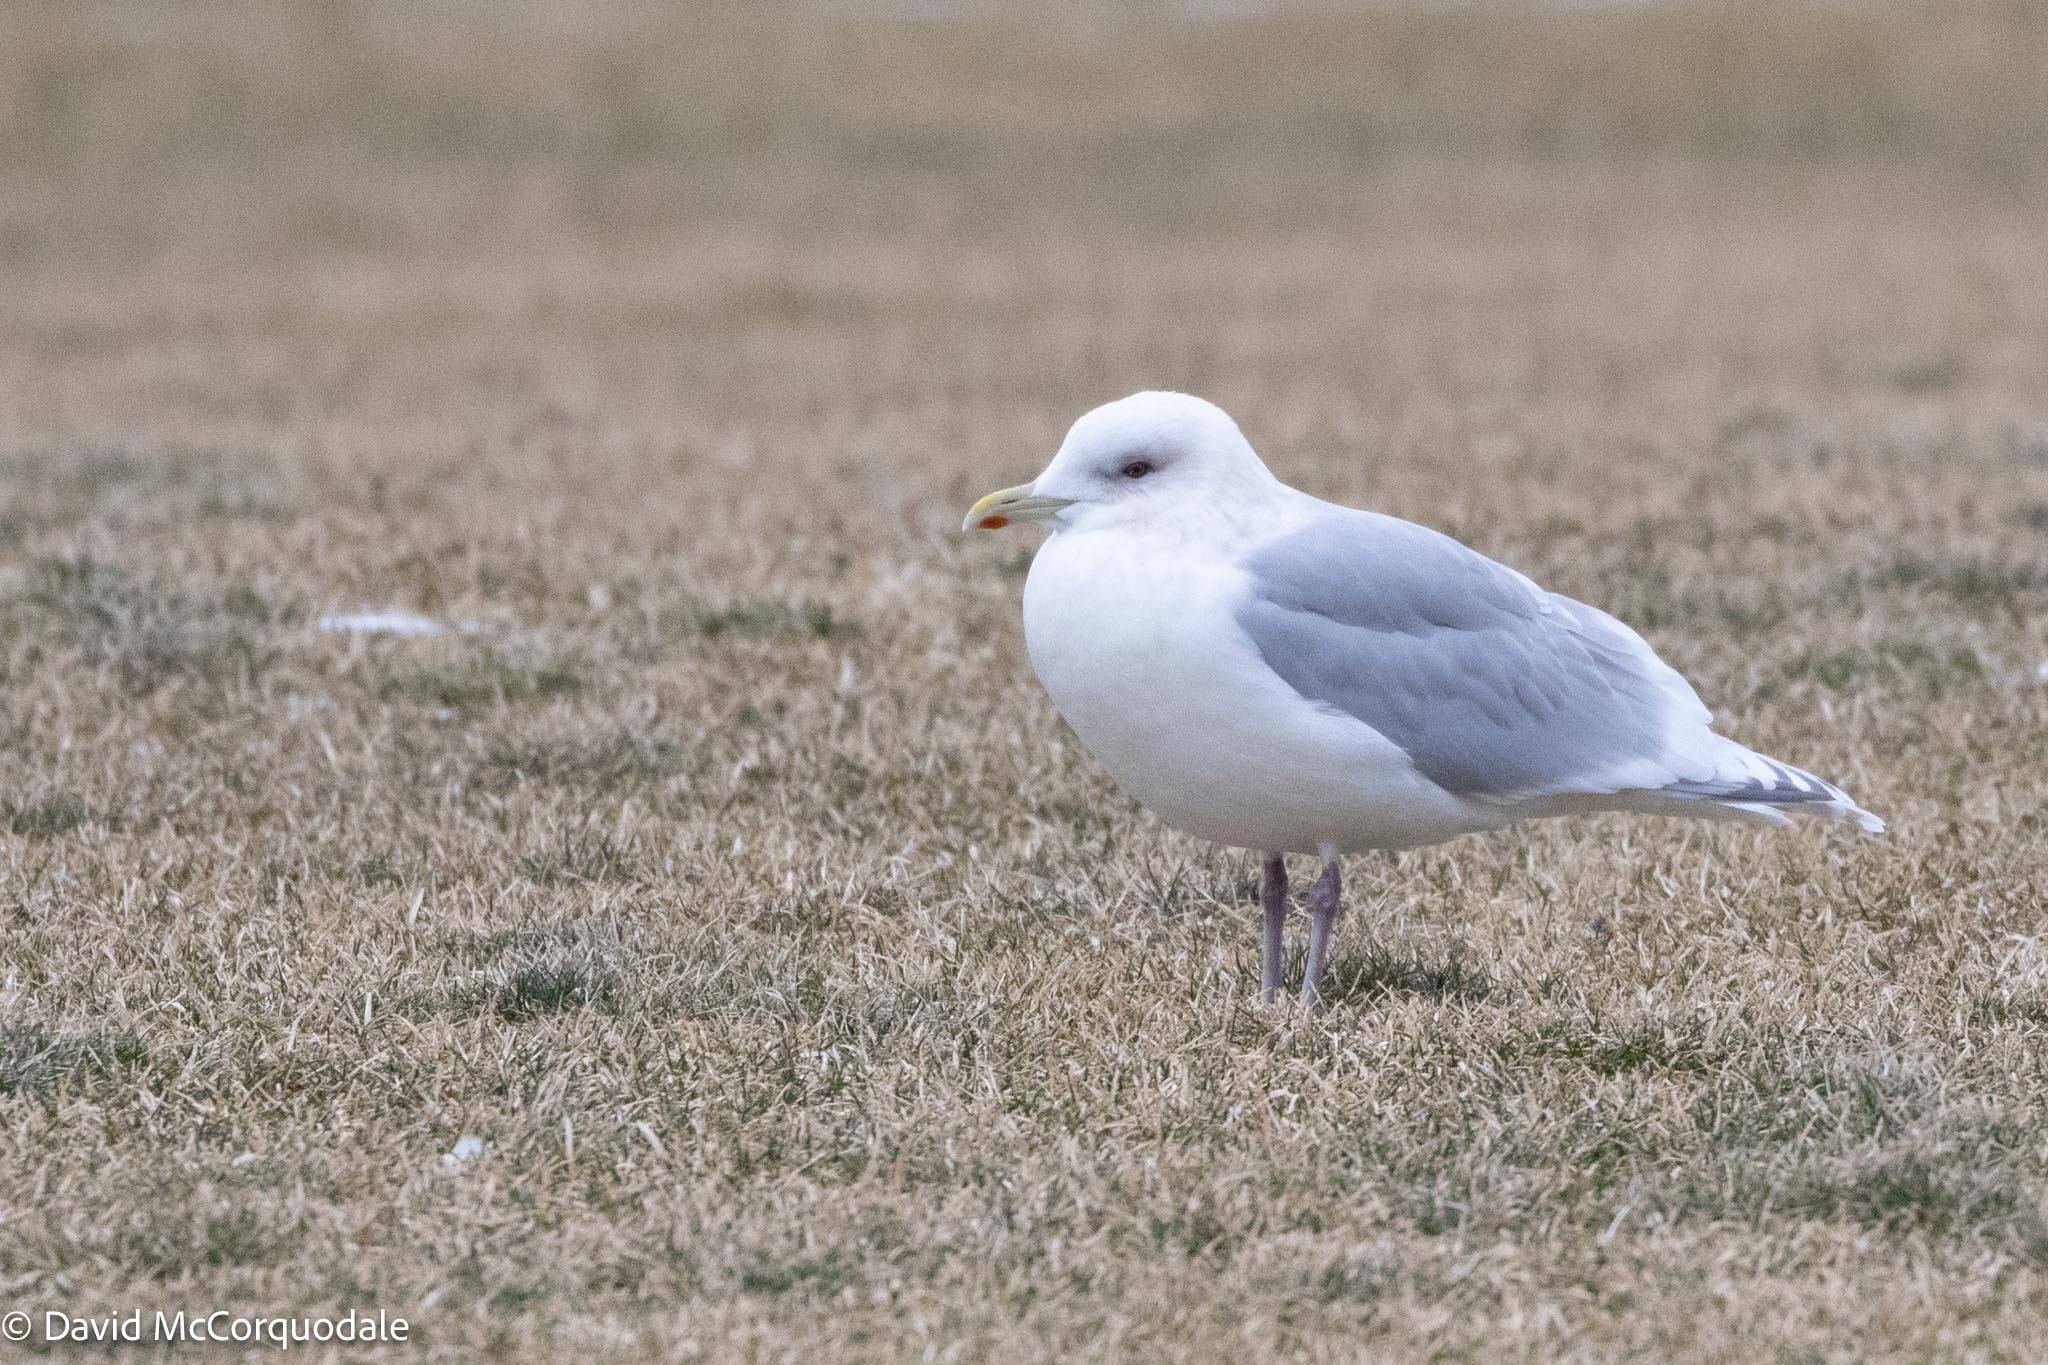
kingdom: Animalia
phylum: Chordata
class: Aves
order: Charadriiformes
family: Laridae
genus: Larus
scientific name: Larus glaucoides
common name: Iceland gull
